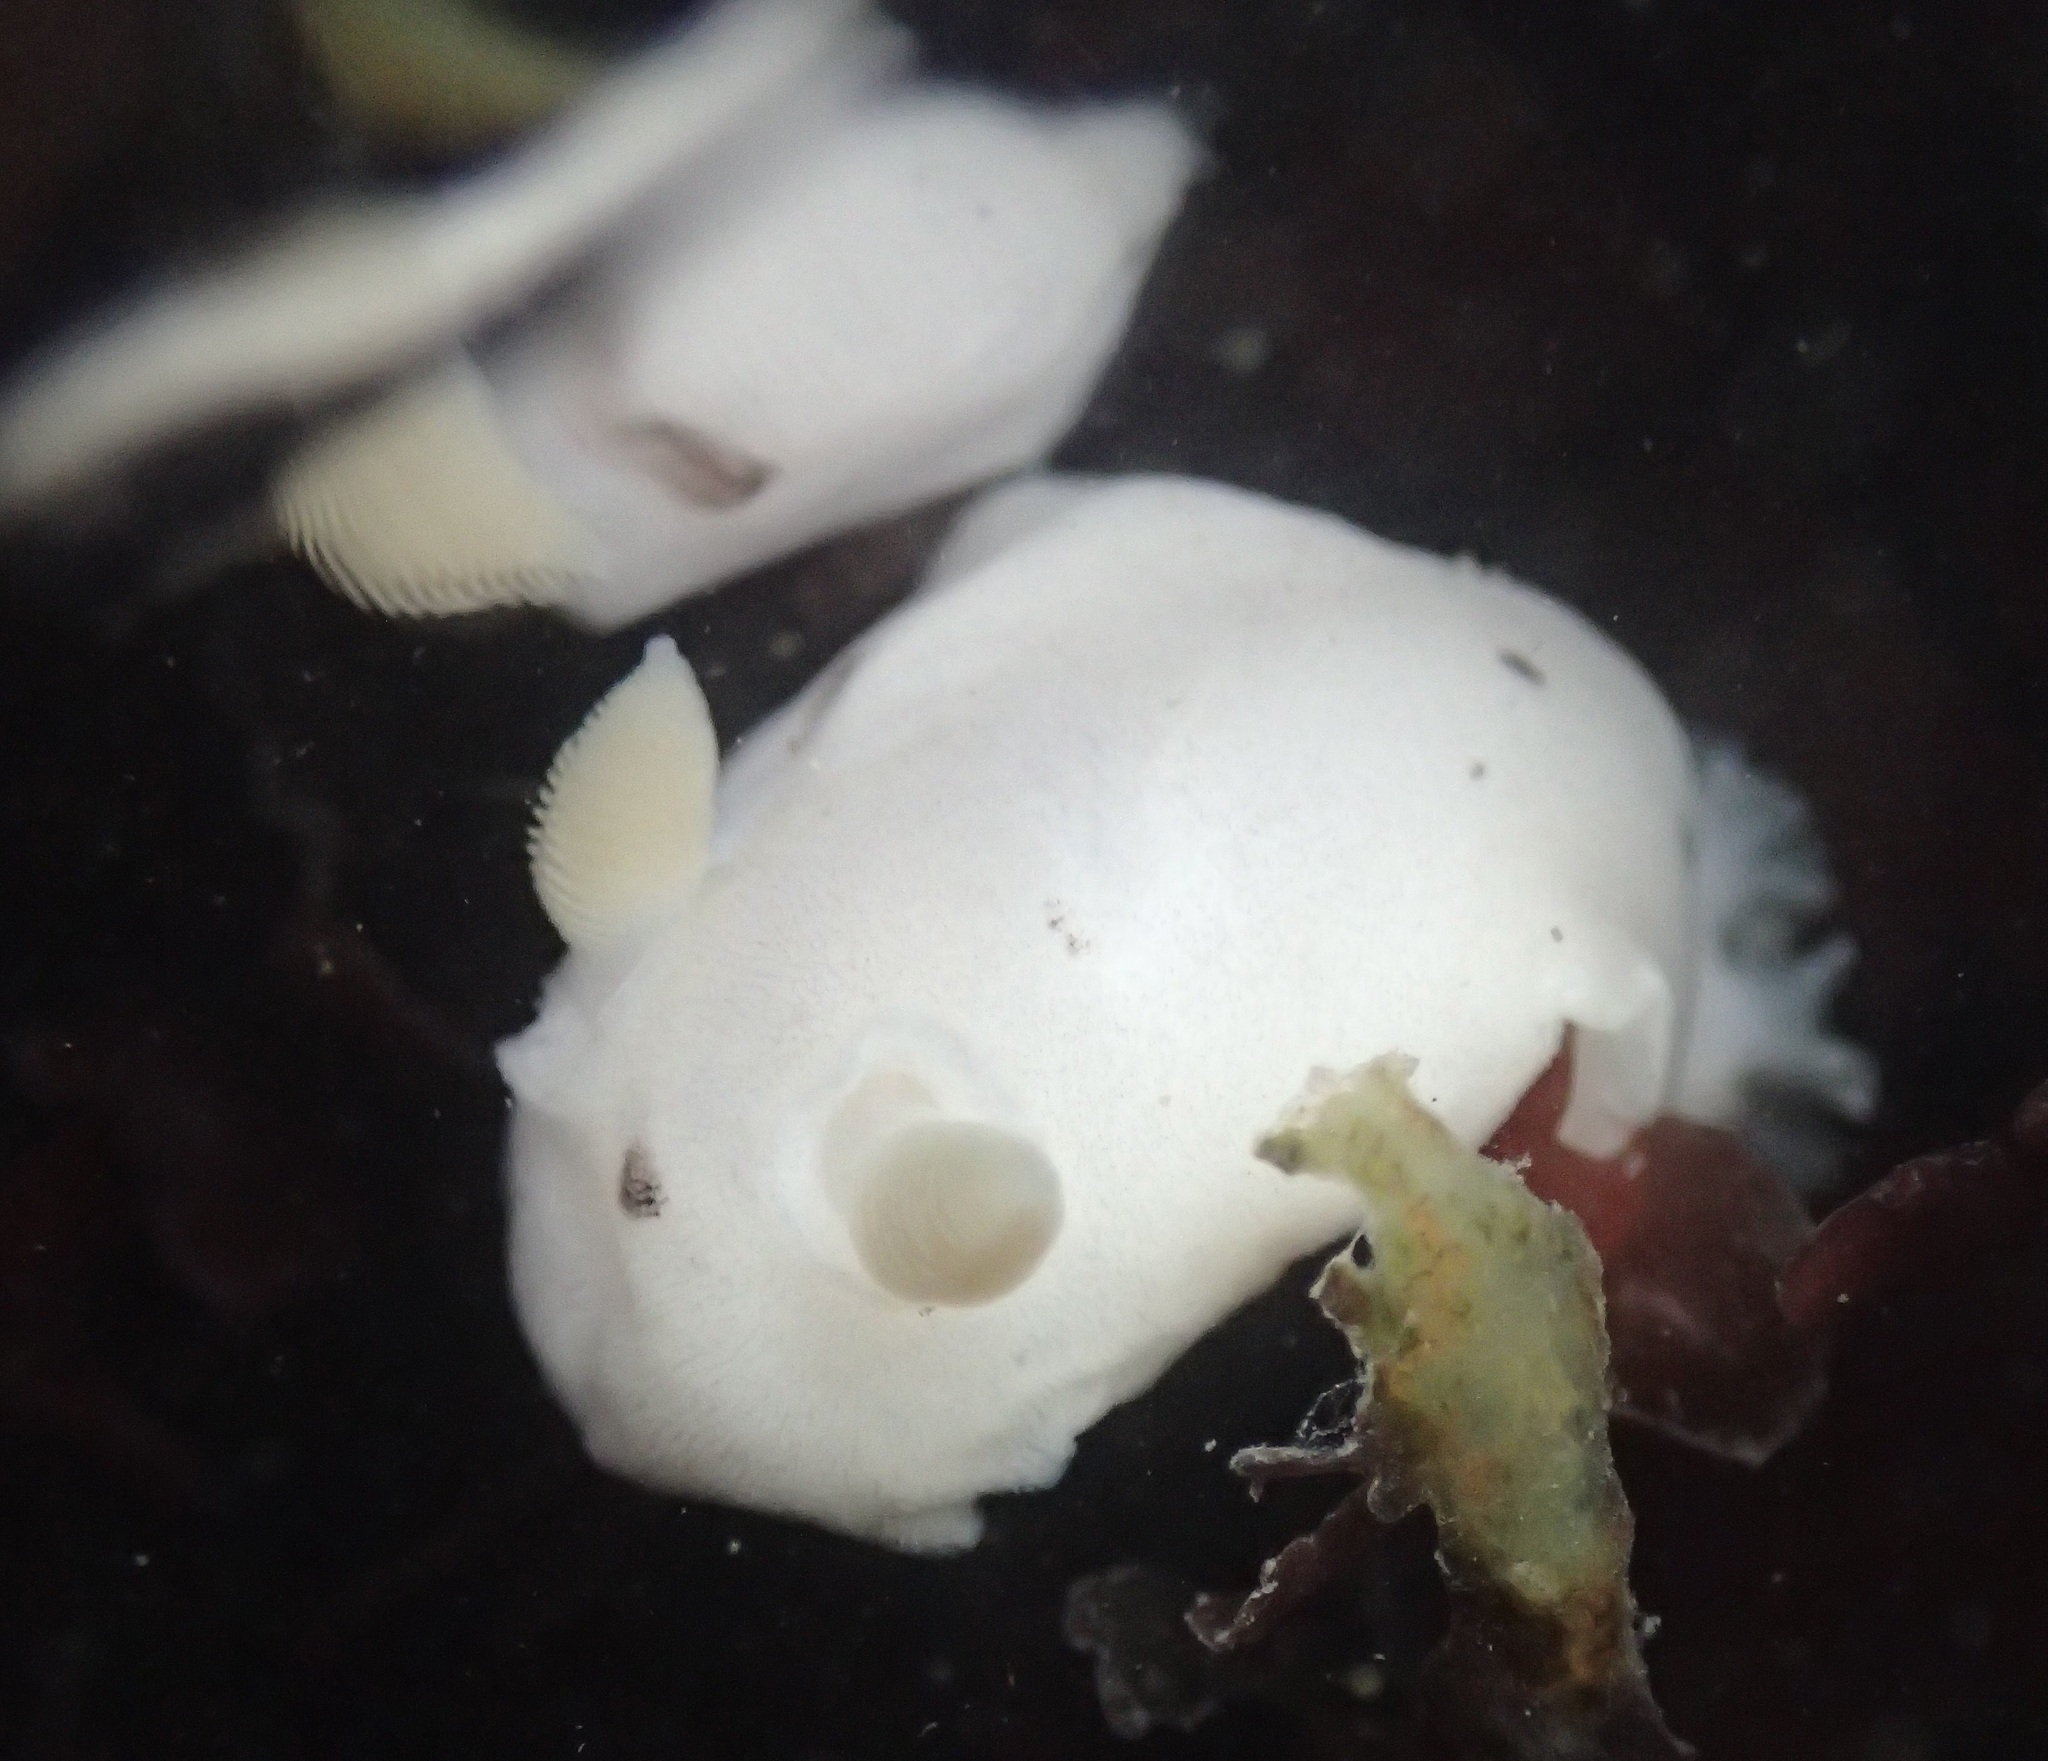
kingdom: Animalia
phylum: Mollusca
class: Gastropoda
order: Nudibranchia
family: Discodorididae
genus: Diaulula
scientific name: Diaulula sandiegensis
